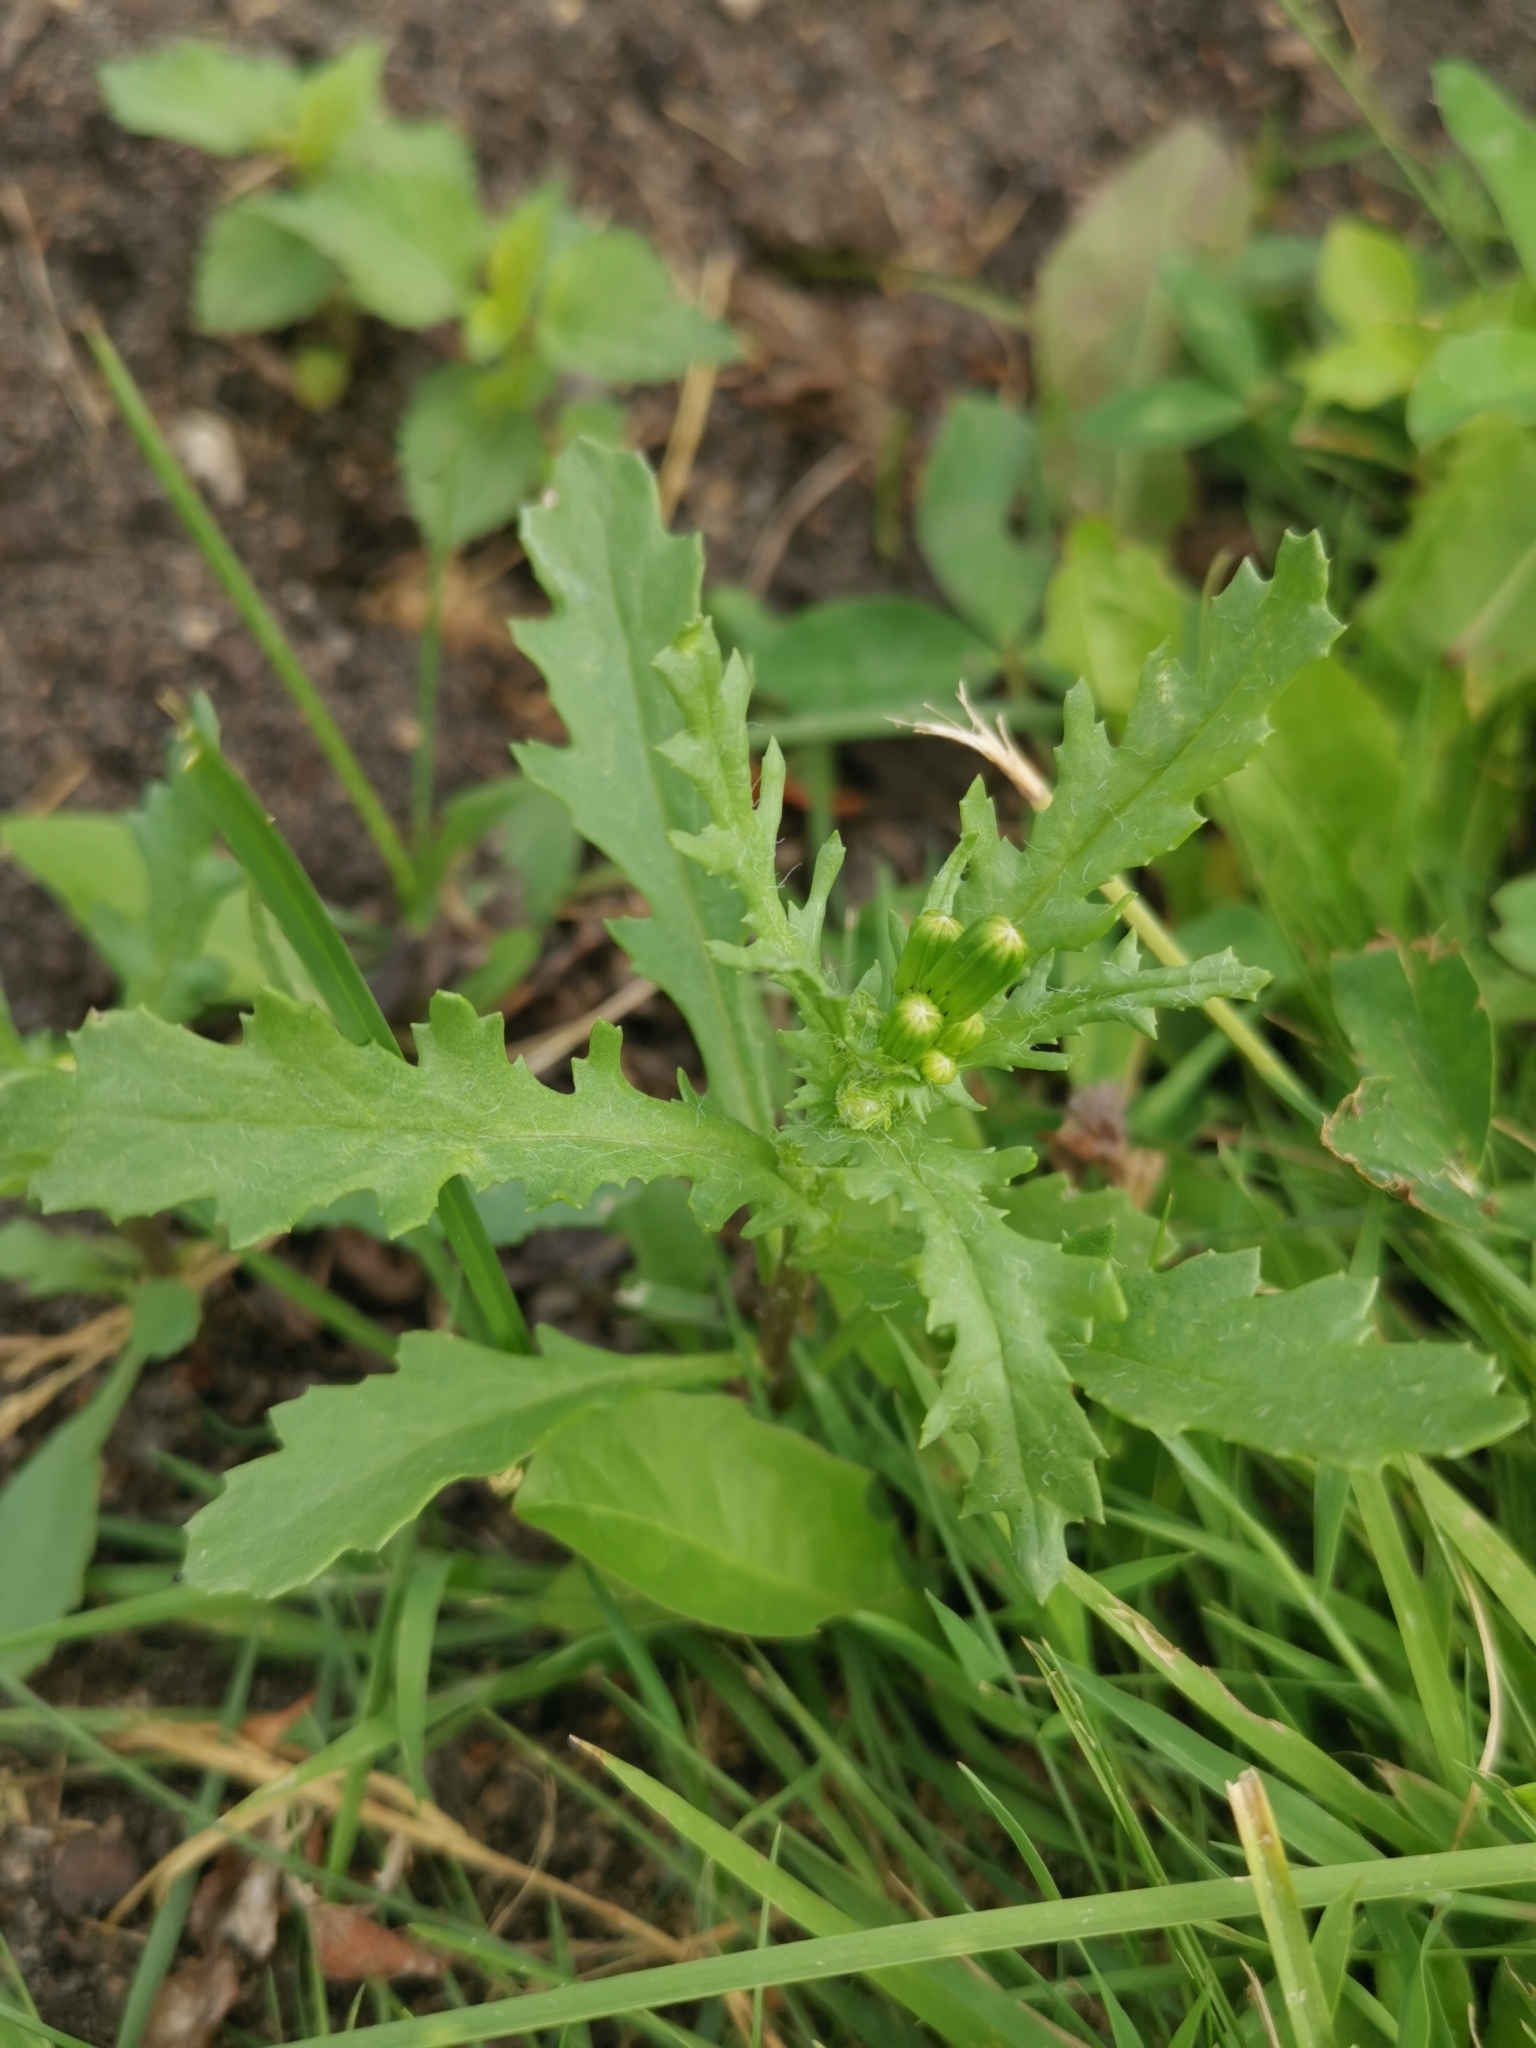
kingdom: Plantae
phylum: Tracheophyta
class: Magnoliopsida
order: Asterales
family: Asteraceae
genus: Senecio
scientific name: Senecio vulgaris
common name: Old-man-in-the-spring
